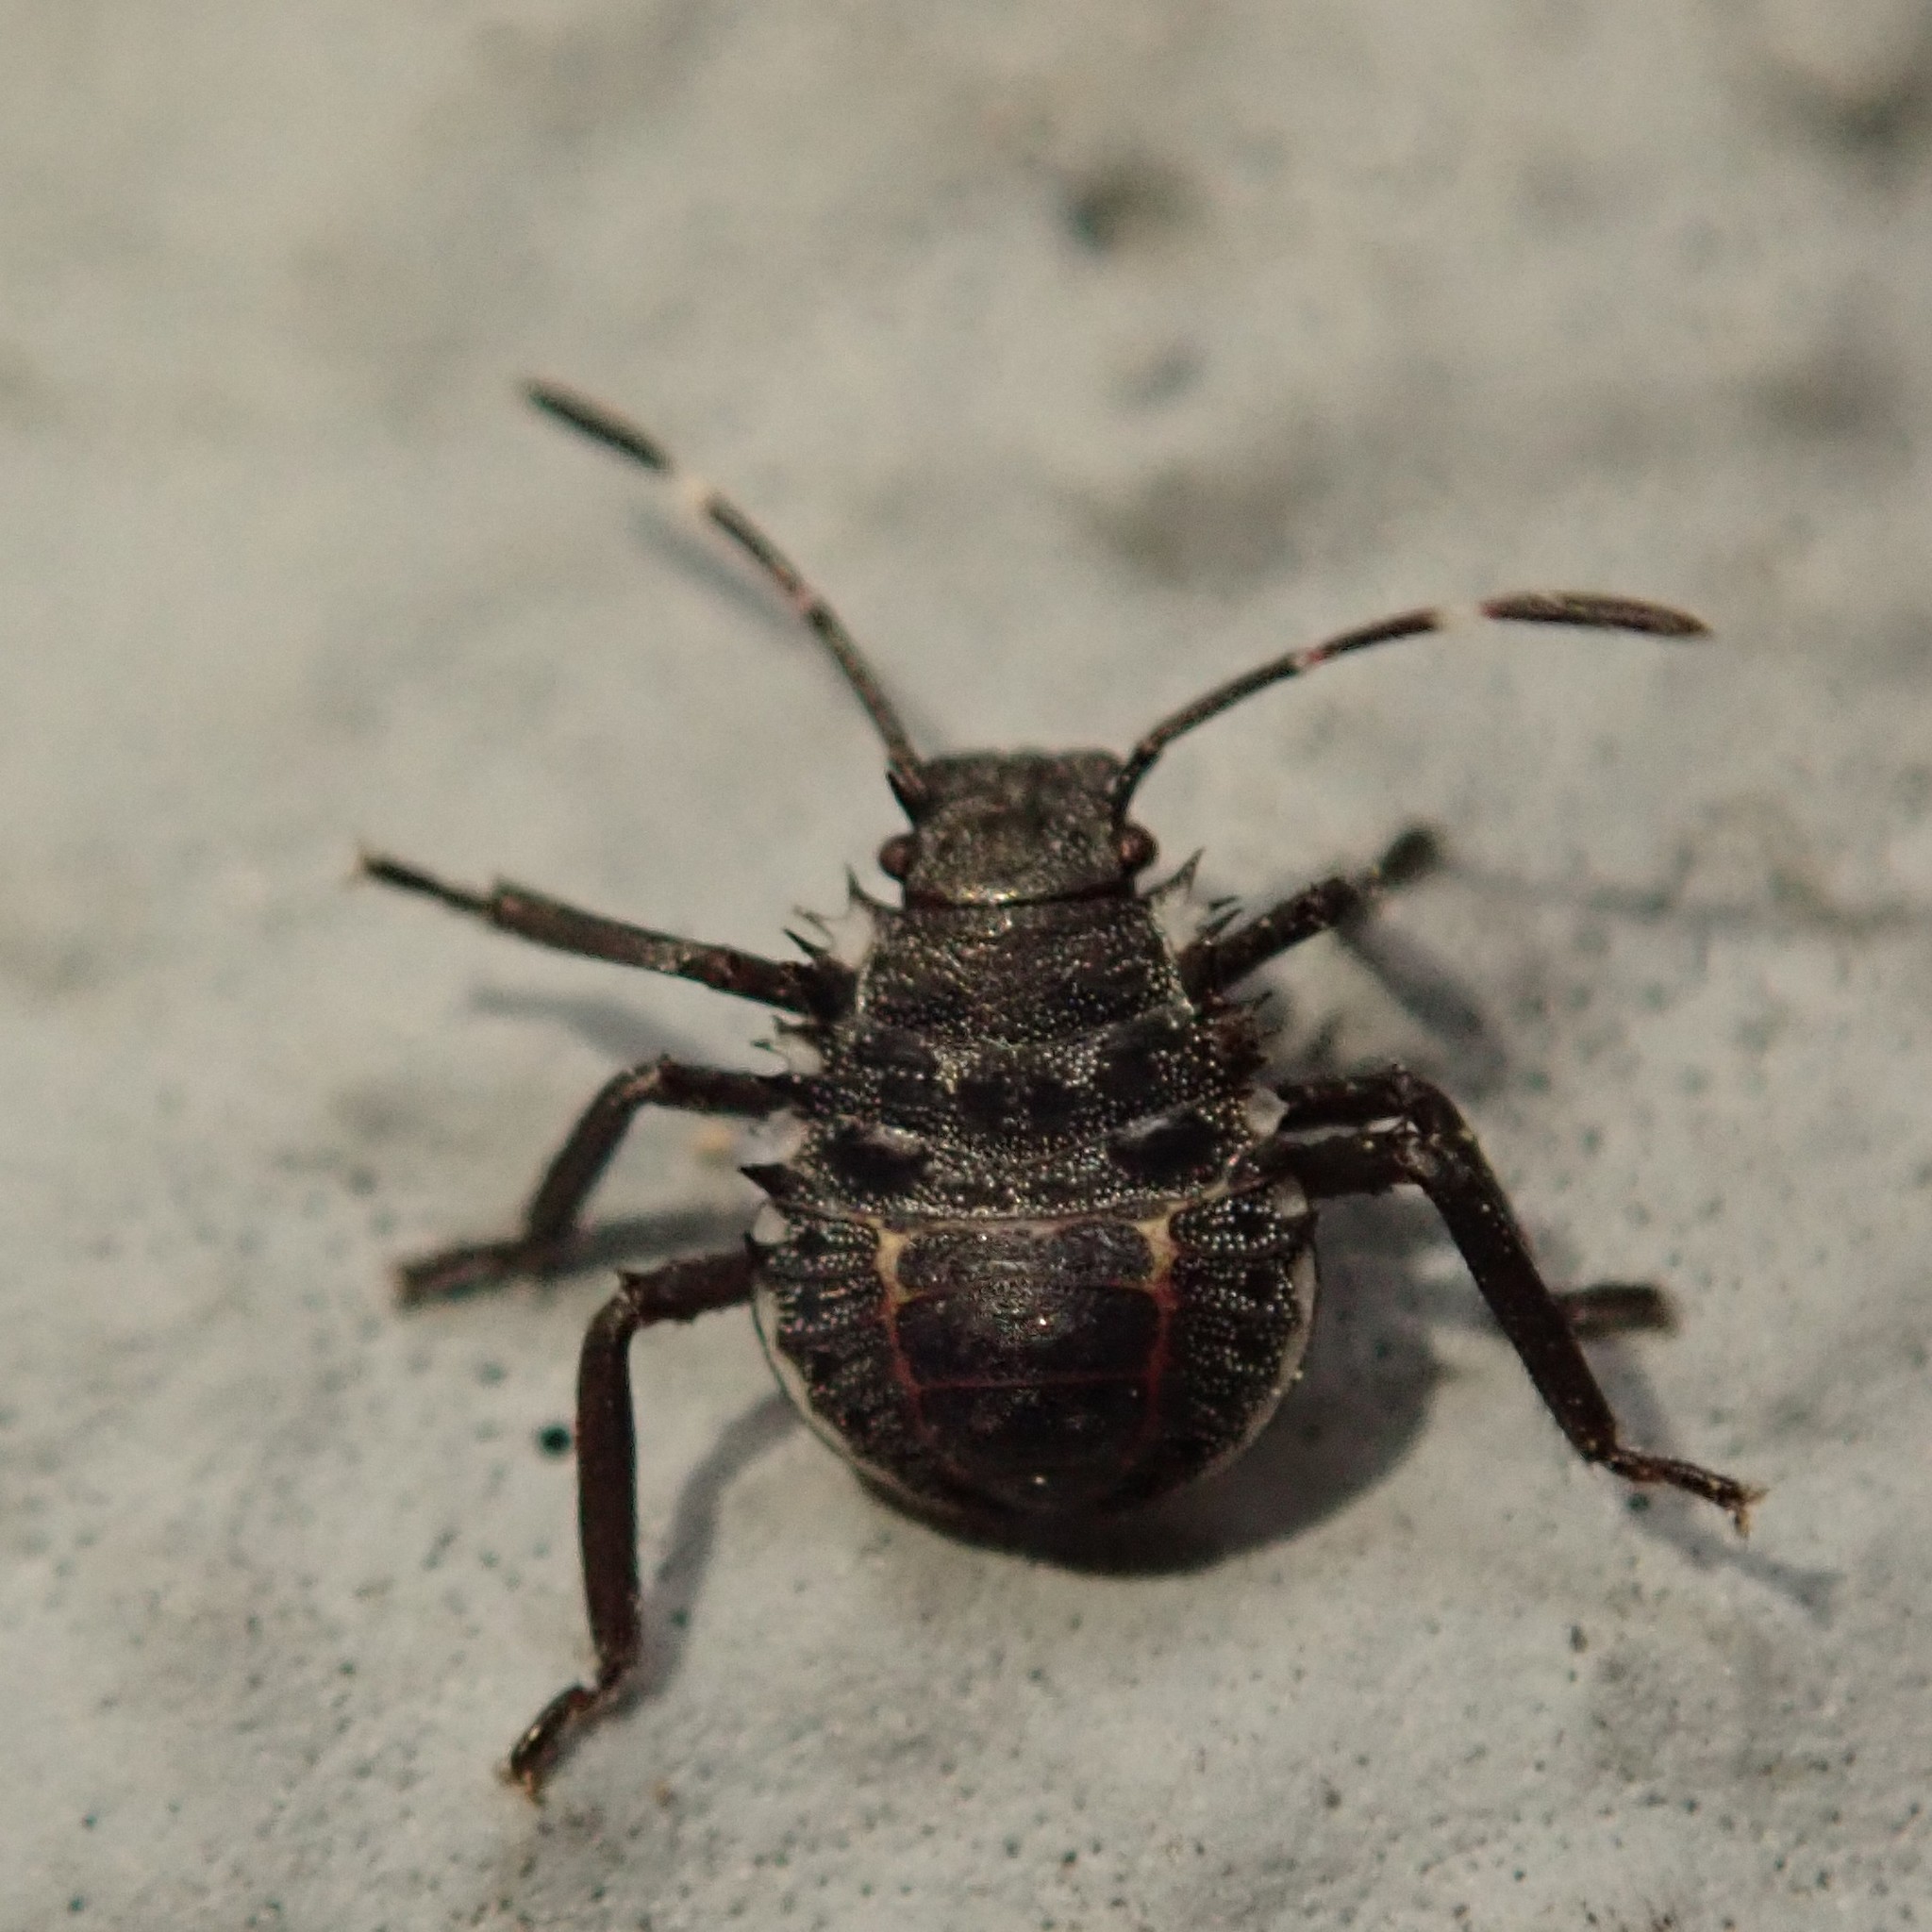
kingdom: Animalia
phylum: Arthropoda
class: Insecta
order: Hemiptera
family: Pentatomidae
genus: Halyomorpha
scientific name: Halyomorpha halys
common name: Brown marmorated stink bug
